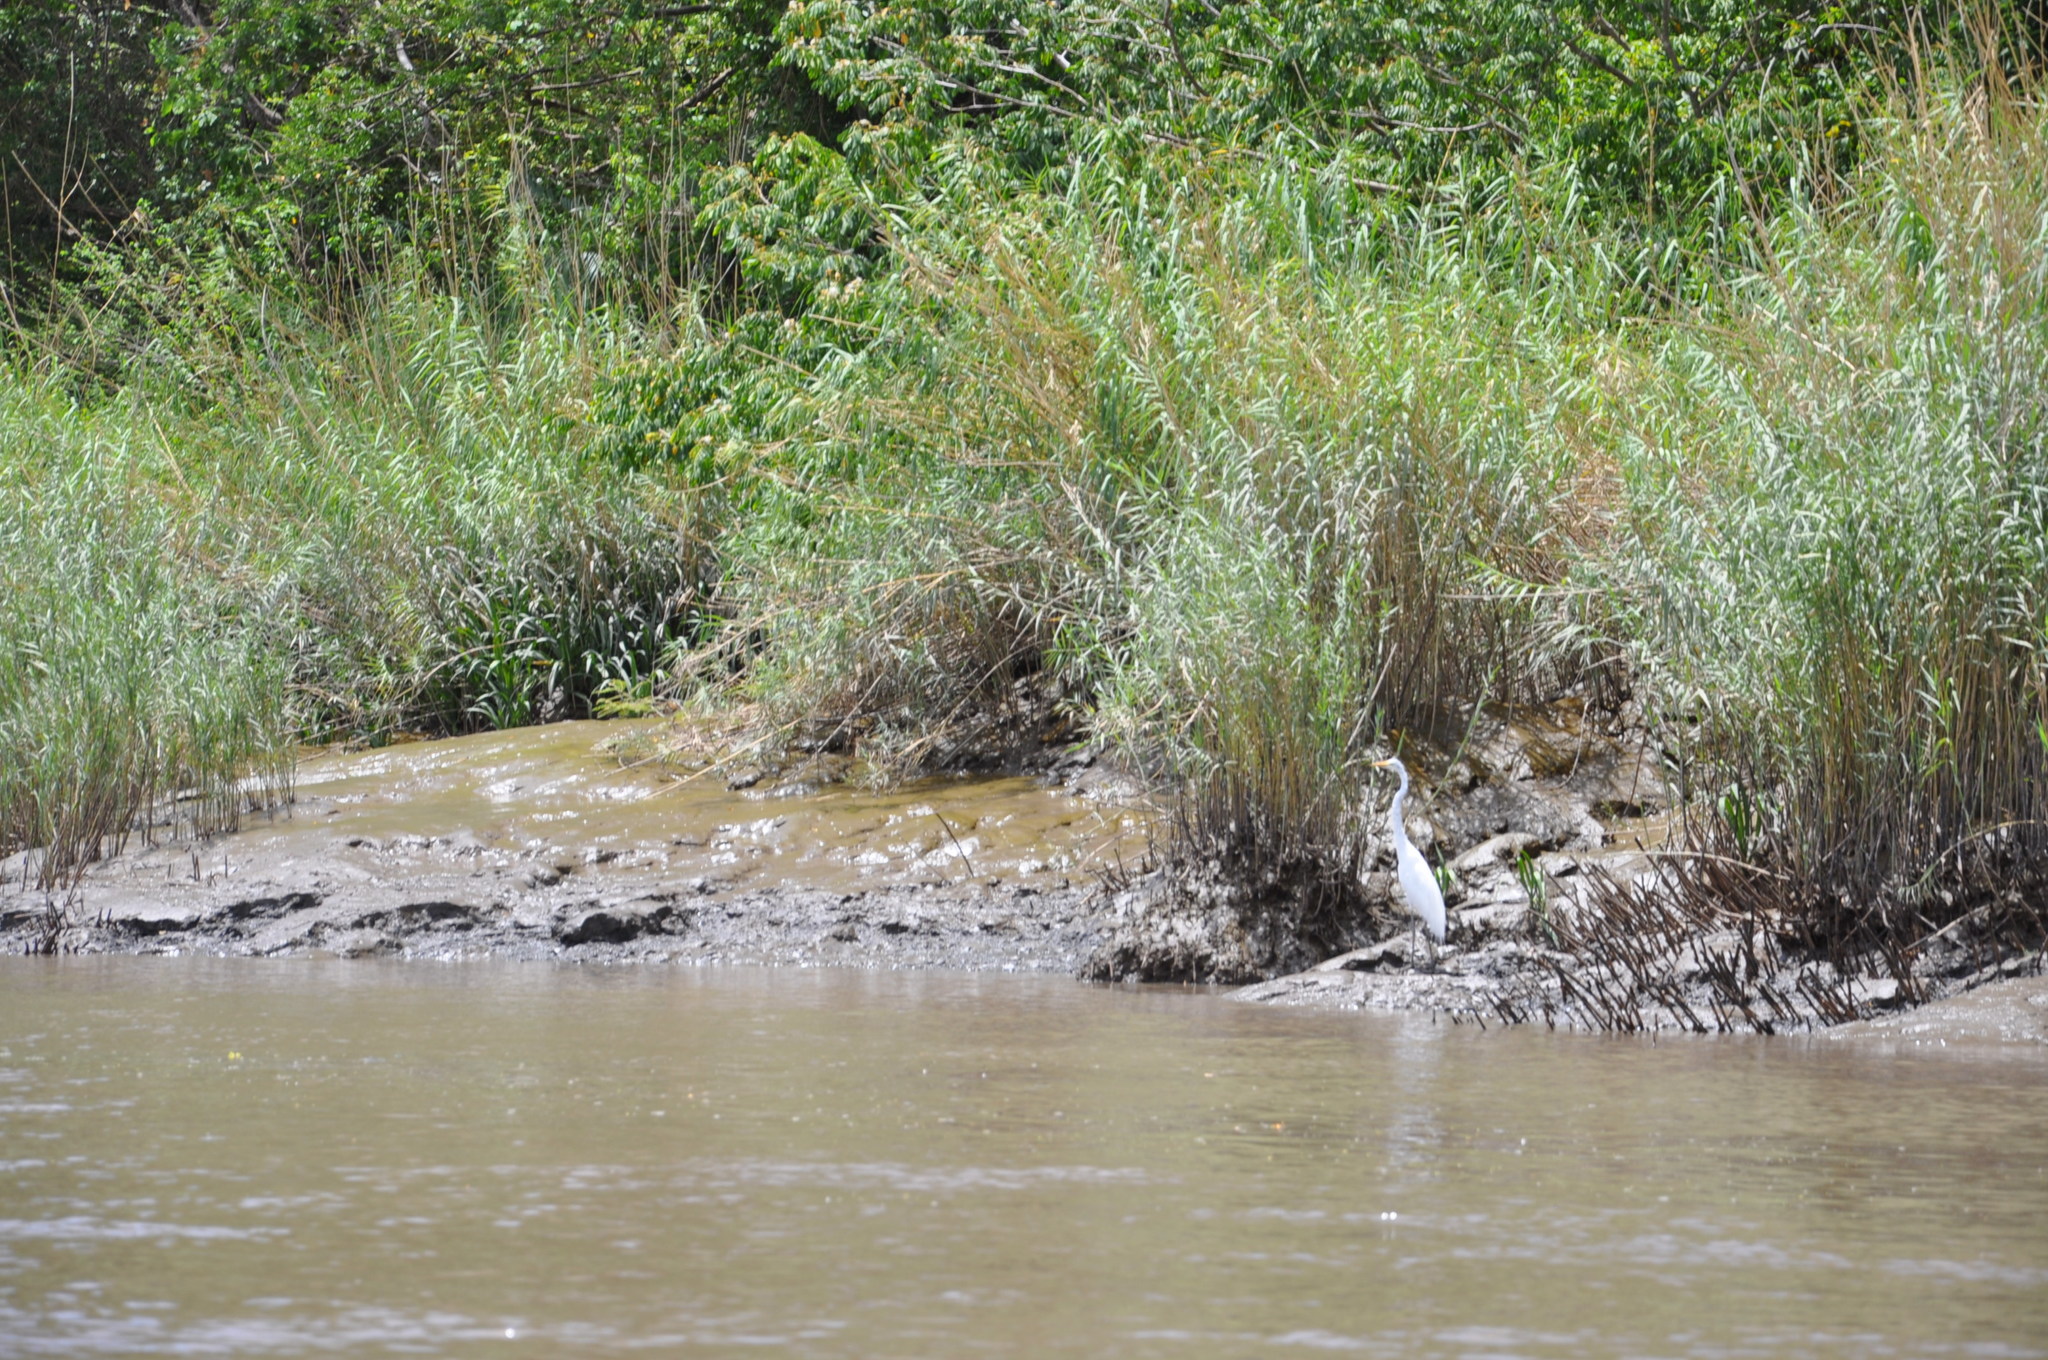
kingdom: Animalia
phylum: Chordata
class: Aves
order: Pelecaniformes
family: Ardeidae
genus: Ardea
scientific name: Ardea alba
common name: Great egret
